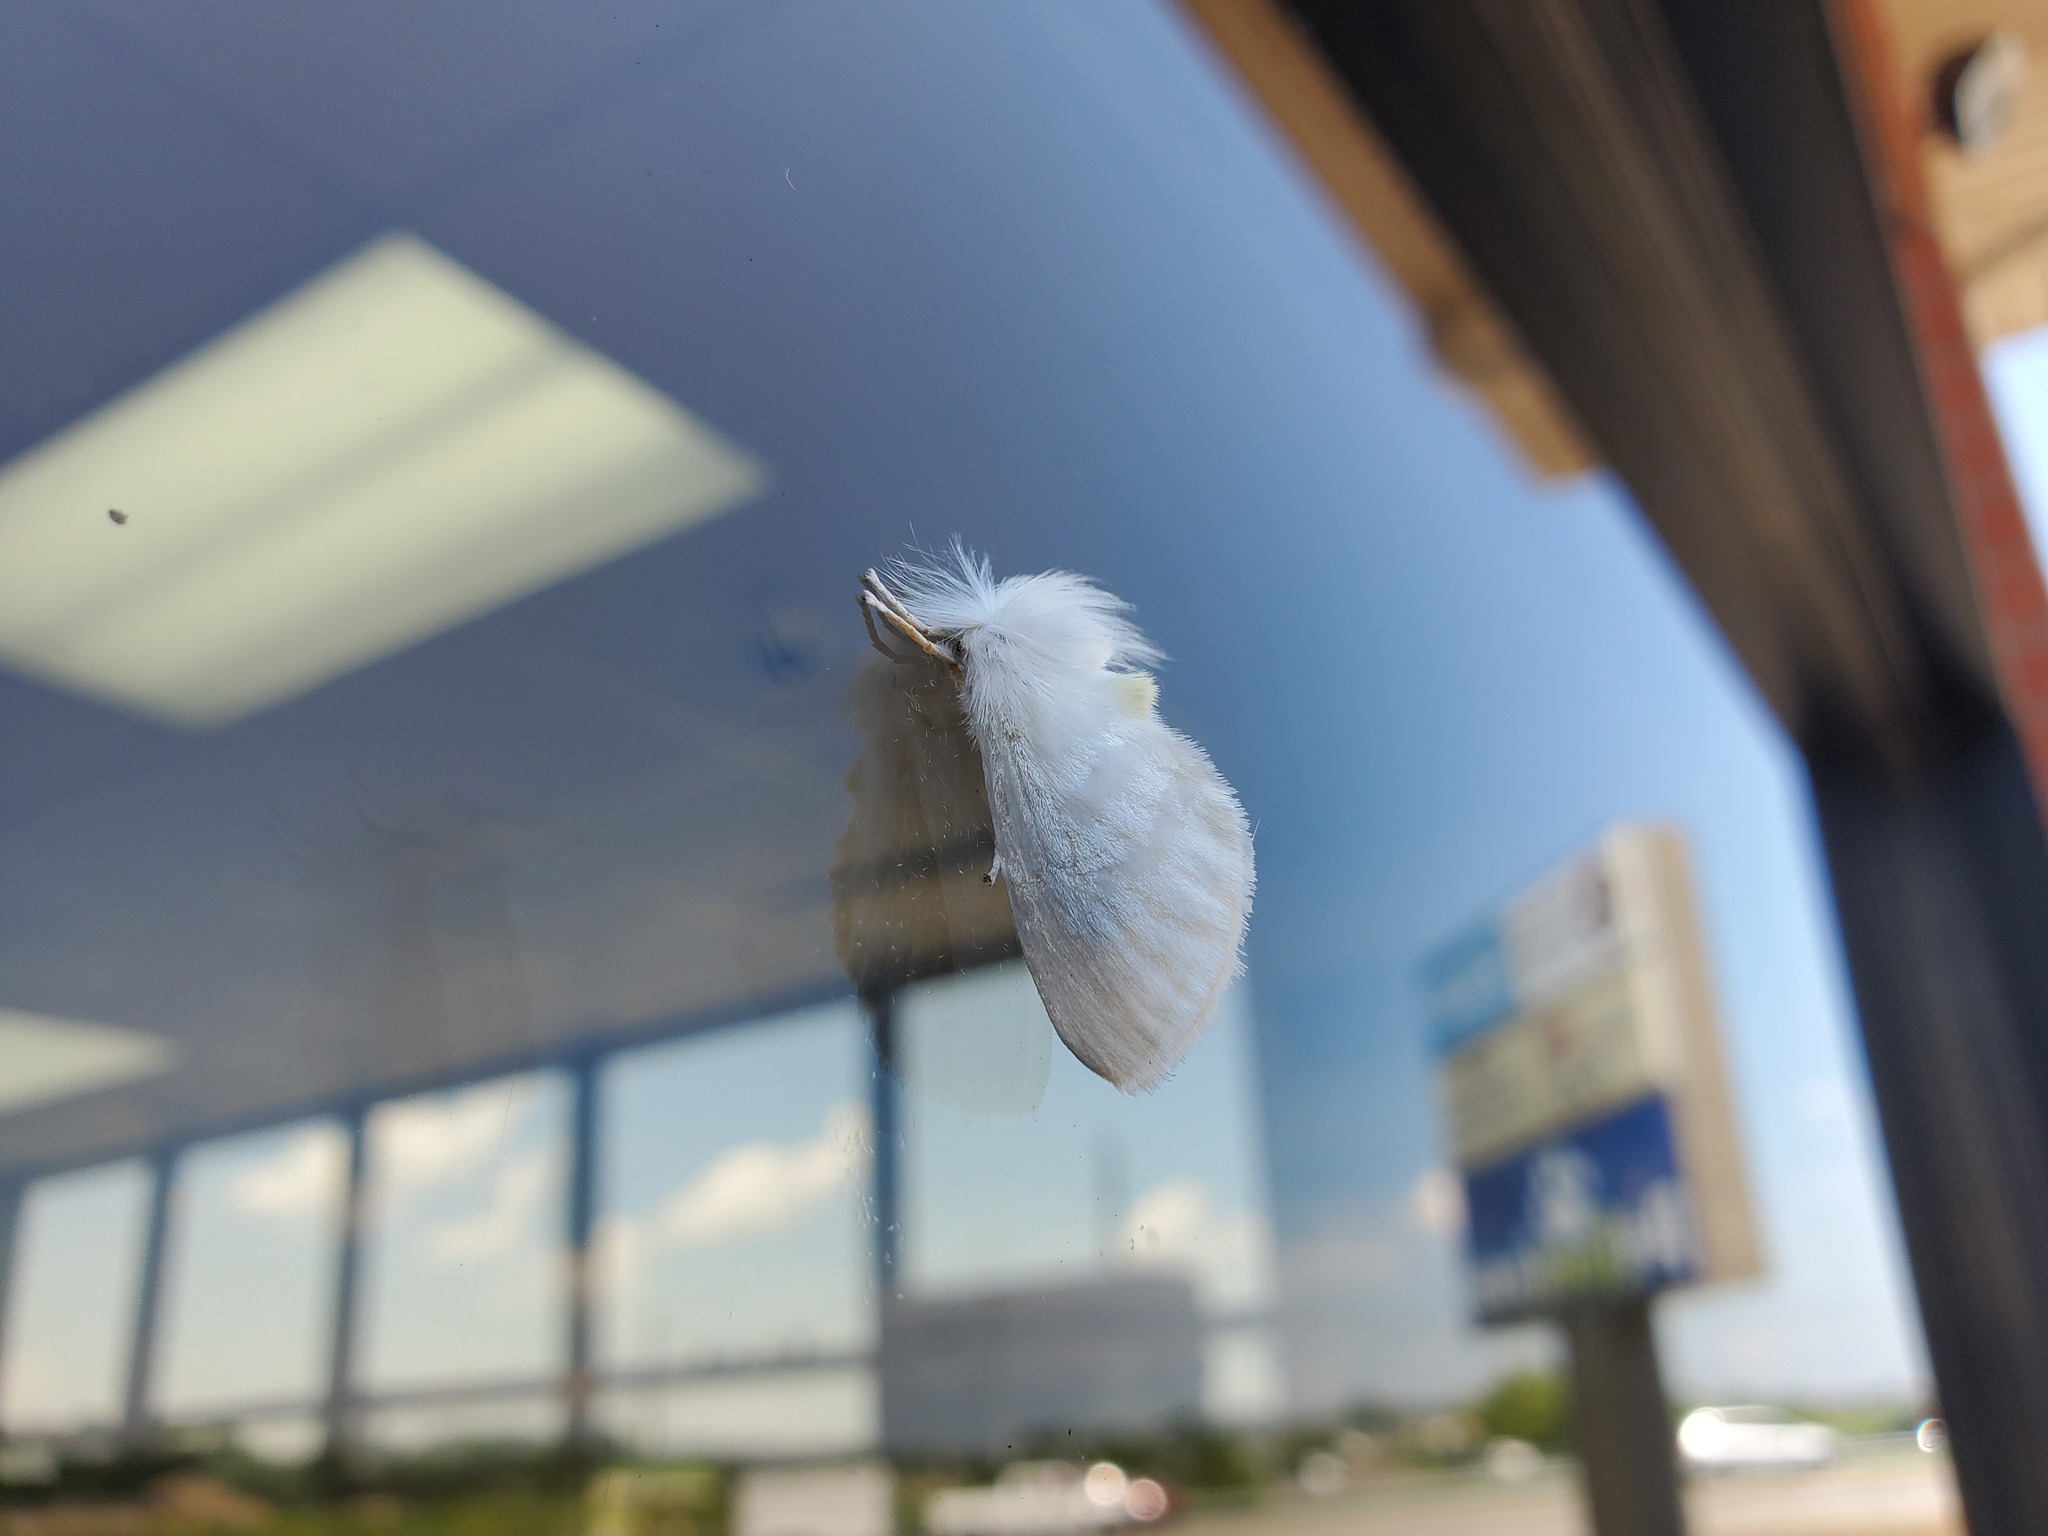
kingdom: Animalia
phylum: Arthropoda
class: Insecta
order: Lepidoptera
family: Megalopygidae
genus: Norape
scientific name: Norape cretata
